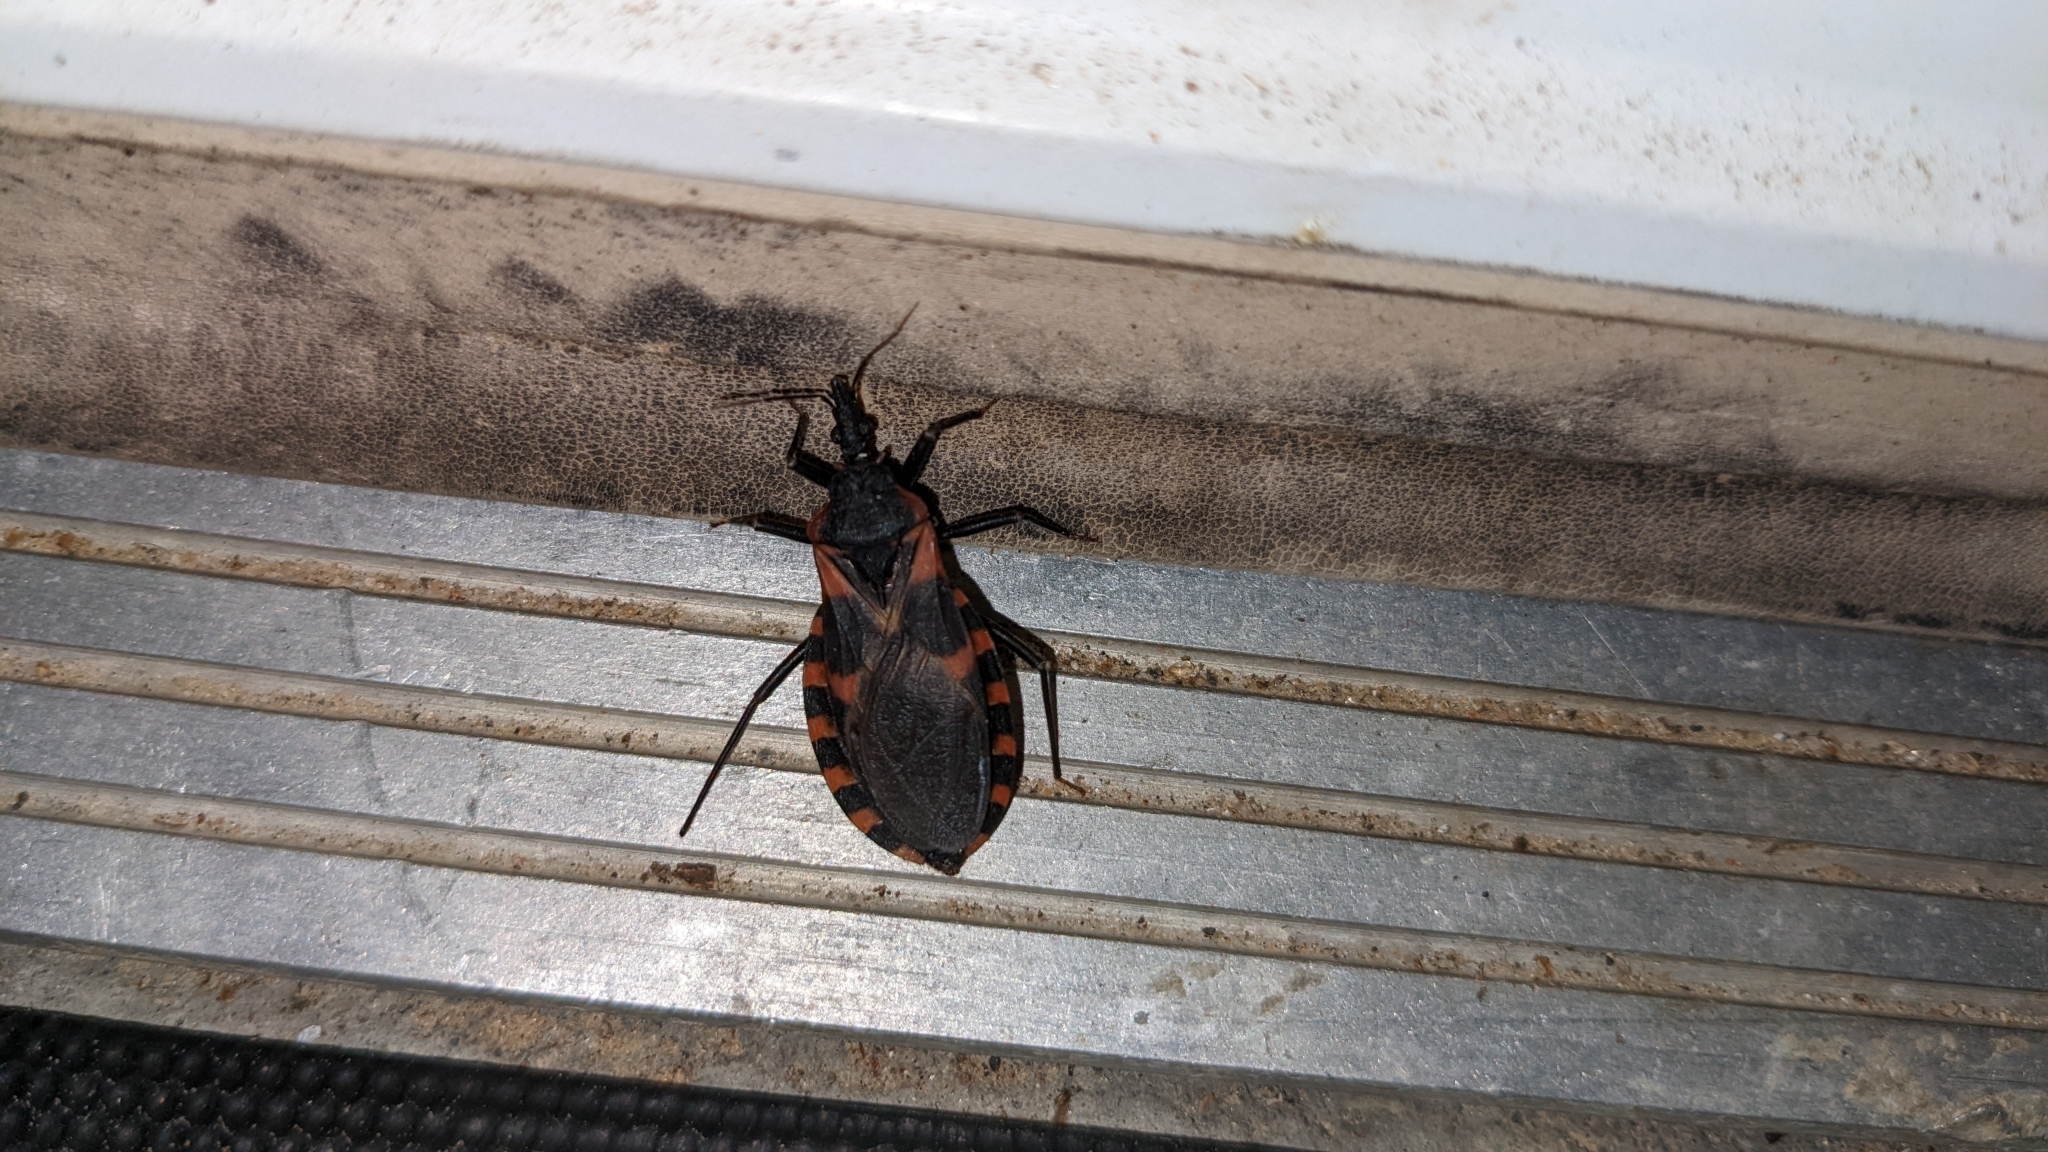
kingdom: Animalia
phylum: Arthropoda
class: Insecta
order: Hemiptera
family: Reduviidae
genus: Triatoma
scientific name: Triatoma sanguisuga
